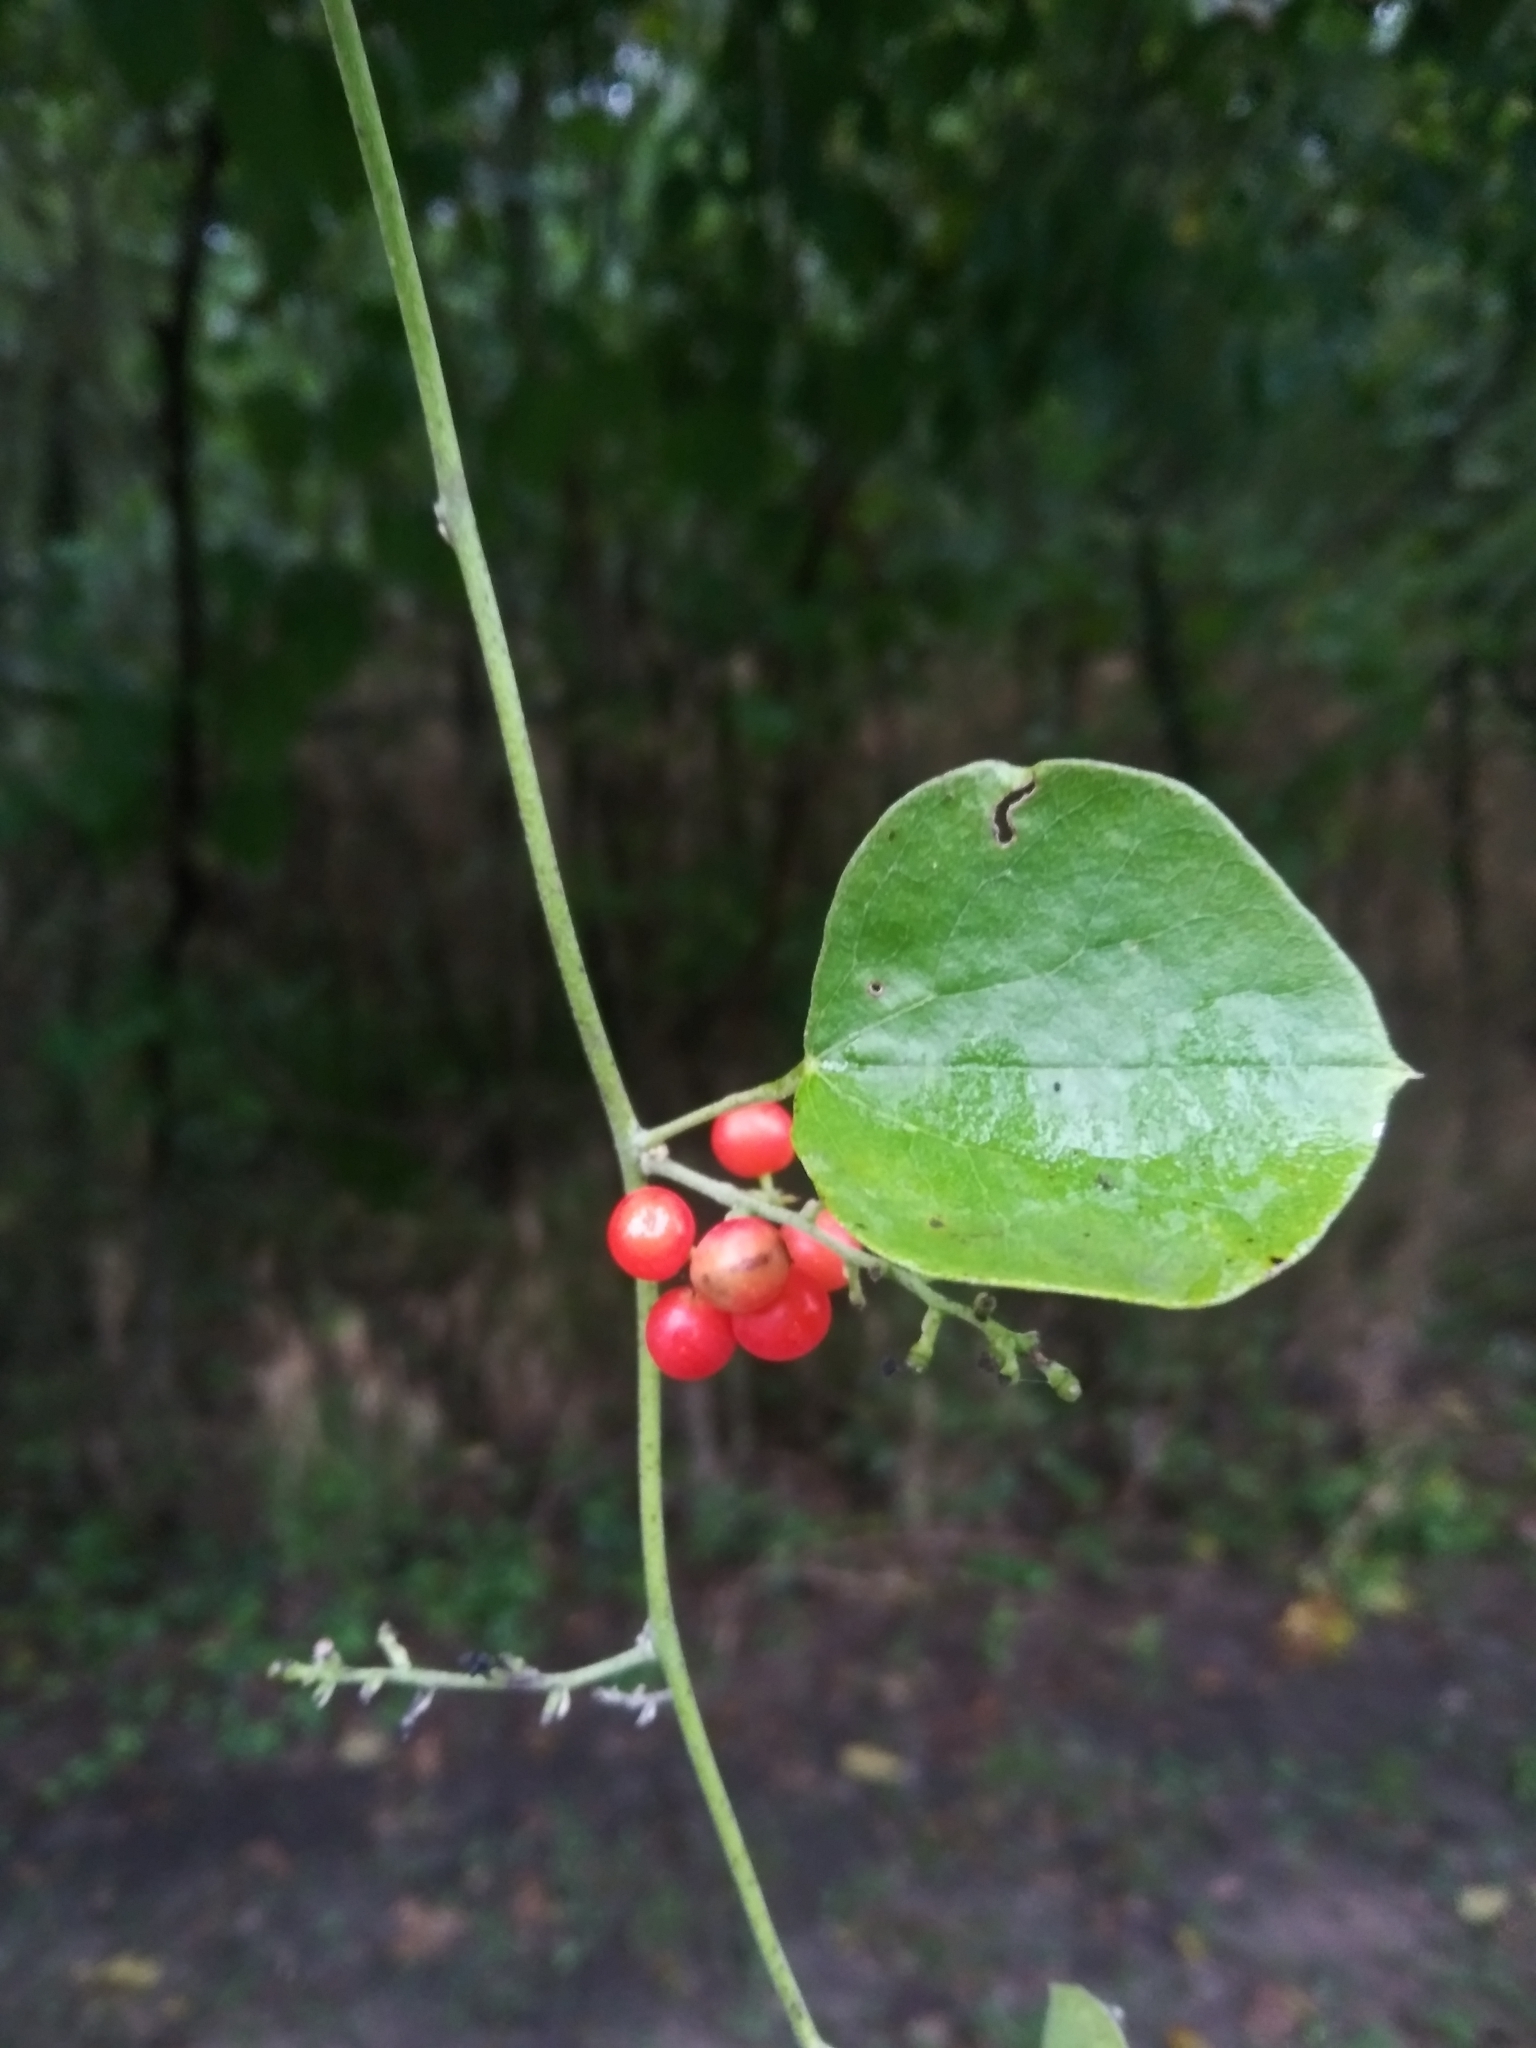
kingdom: Plantae
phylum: Tracheophyta
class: Magnoliopsida
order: Ranunculales
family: Menispermaceae
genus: Cocculus
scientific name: Cocculus carolinus
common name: Carolina moonseed
